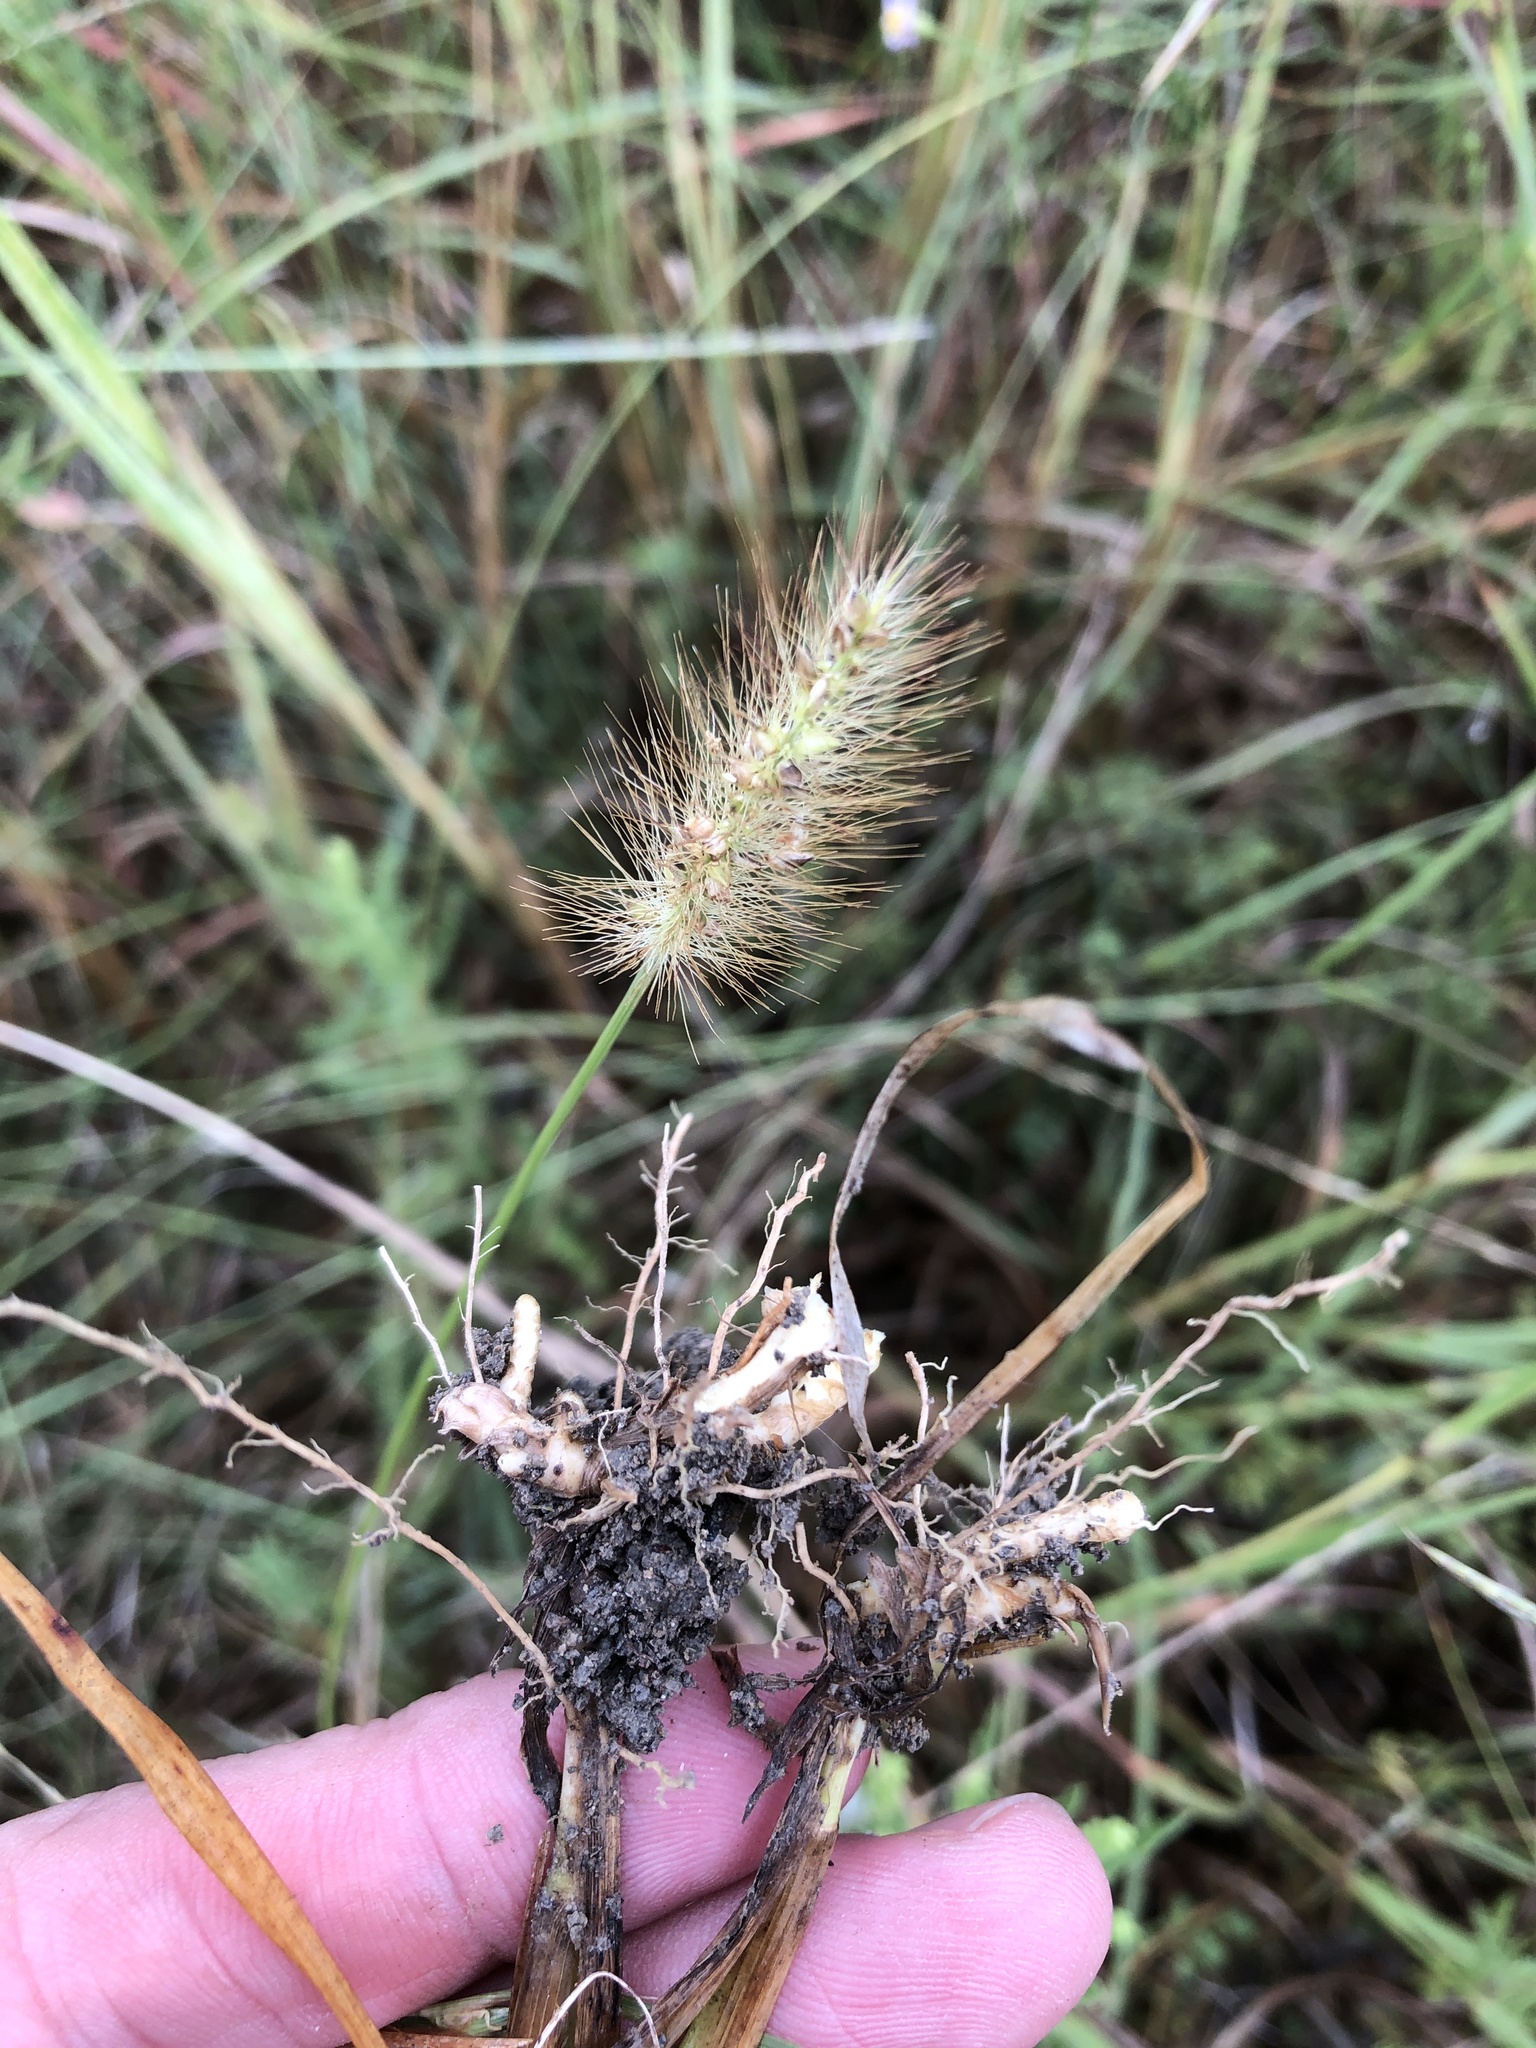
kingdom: Plantae
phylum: Tracheophyta
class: Liliopsida
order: Poales
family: Poaceae
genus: Setaria
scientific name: Setaria parviflora
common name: Knotroot bristle-grass
